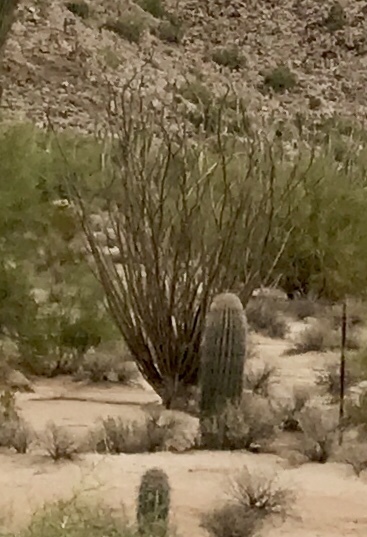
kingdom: Plantae
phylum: Tracheophyta
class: Magnoliopsida
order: Caryophyllales
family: Cactaceae
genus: Carnegiea
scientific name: Carnegiea gigantea
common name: Saguaro
